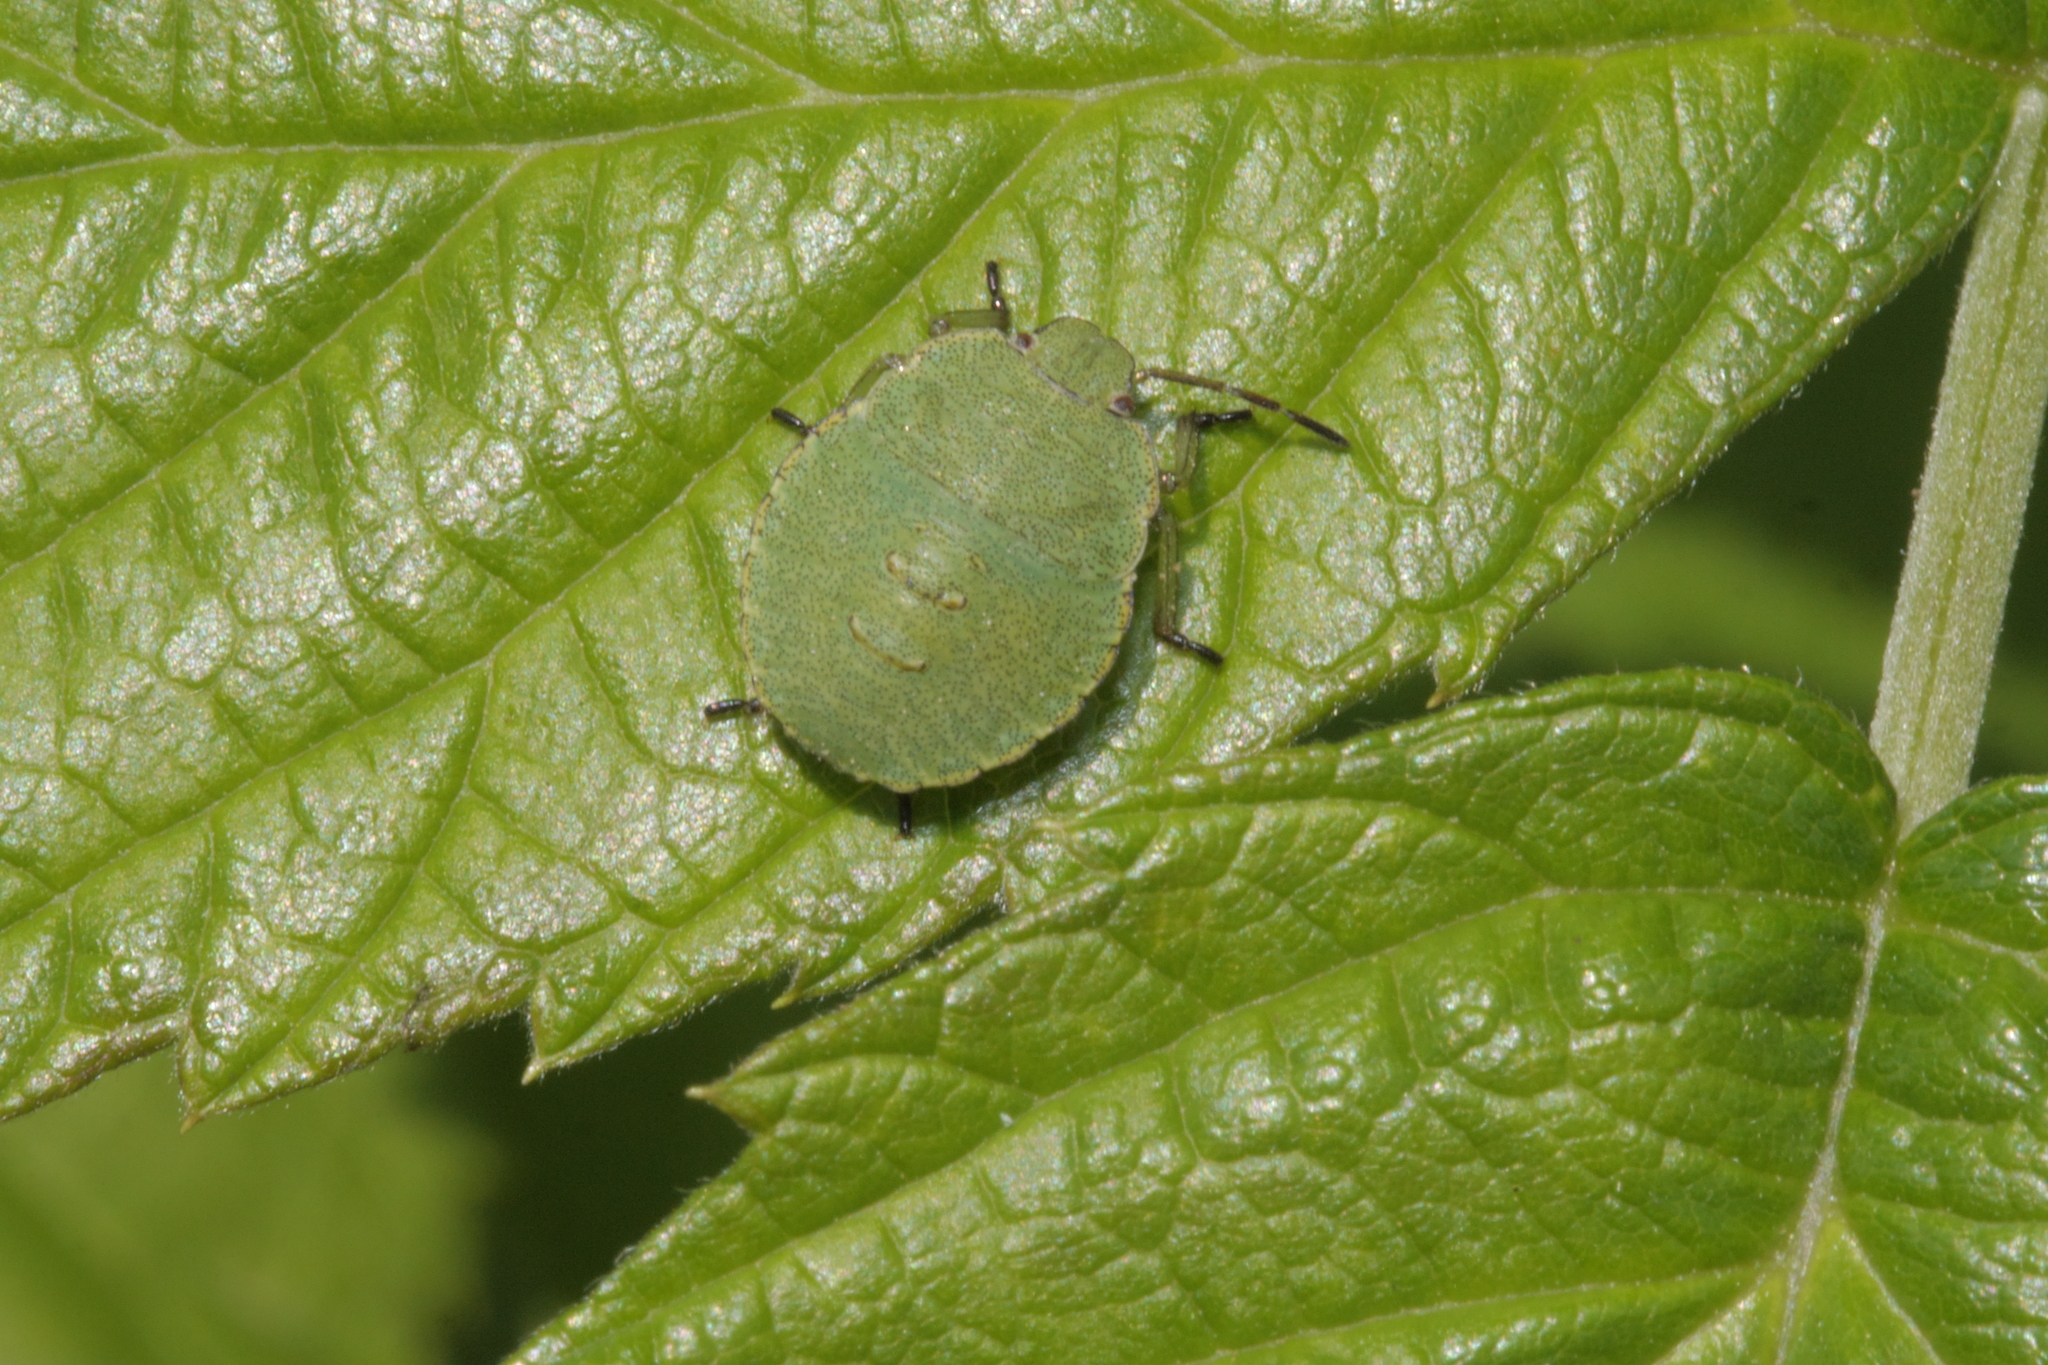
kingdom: Animalia
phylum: Arthropoda
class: Insecta
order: Hemiptera
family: Pentatomidae
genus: Palomena
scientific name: Palomena prasina
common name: Green shieldbug
